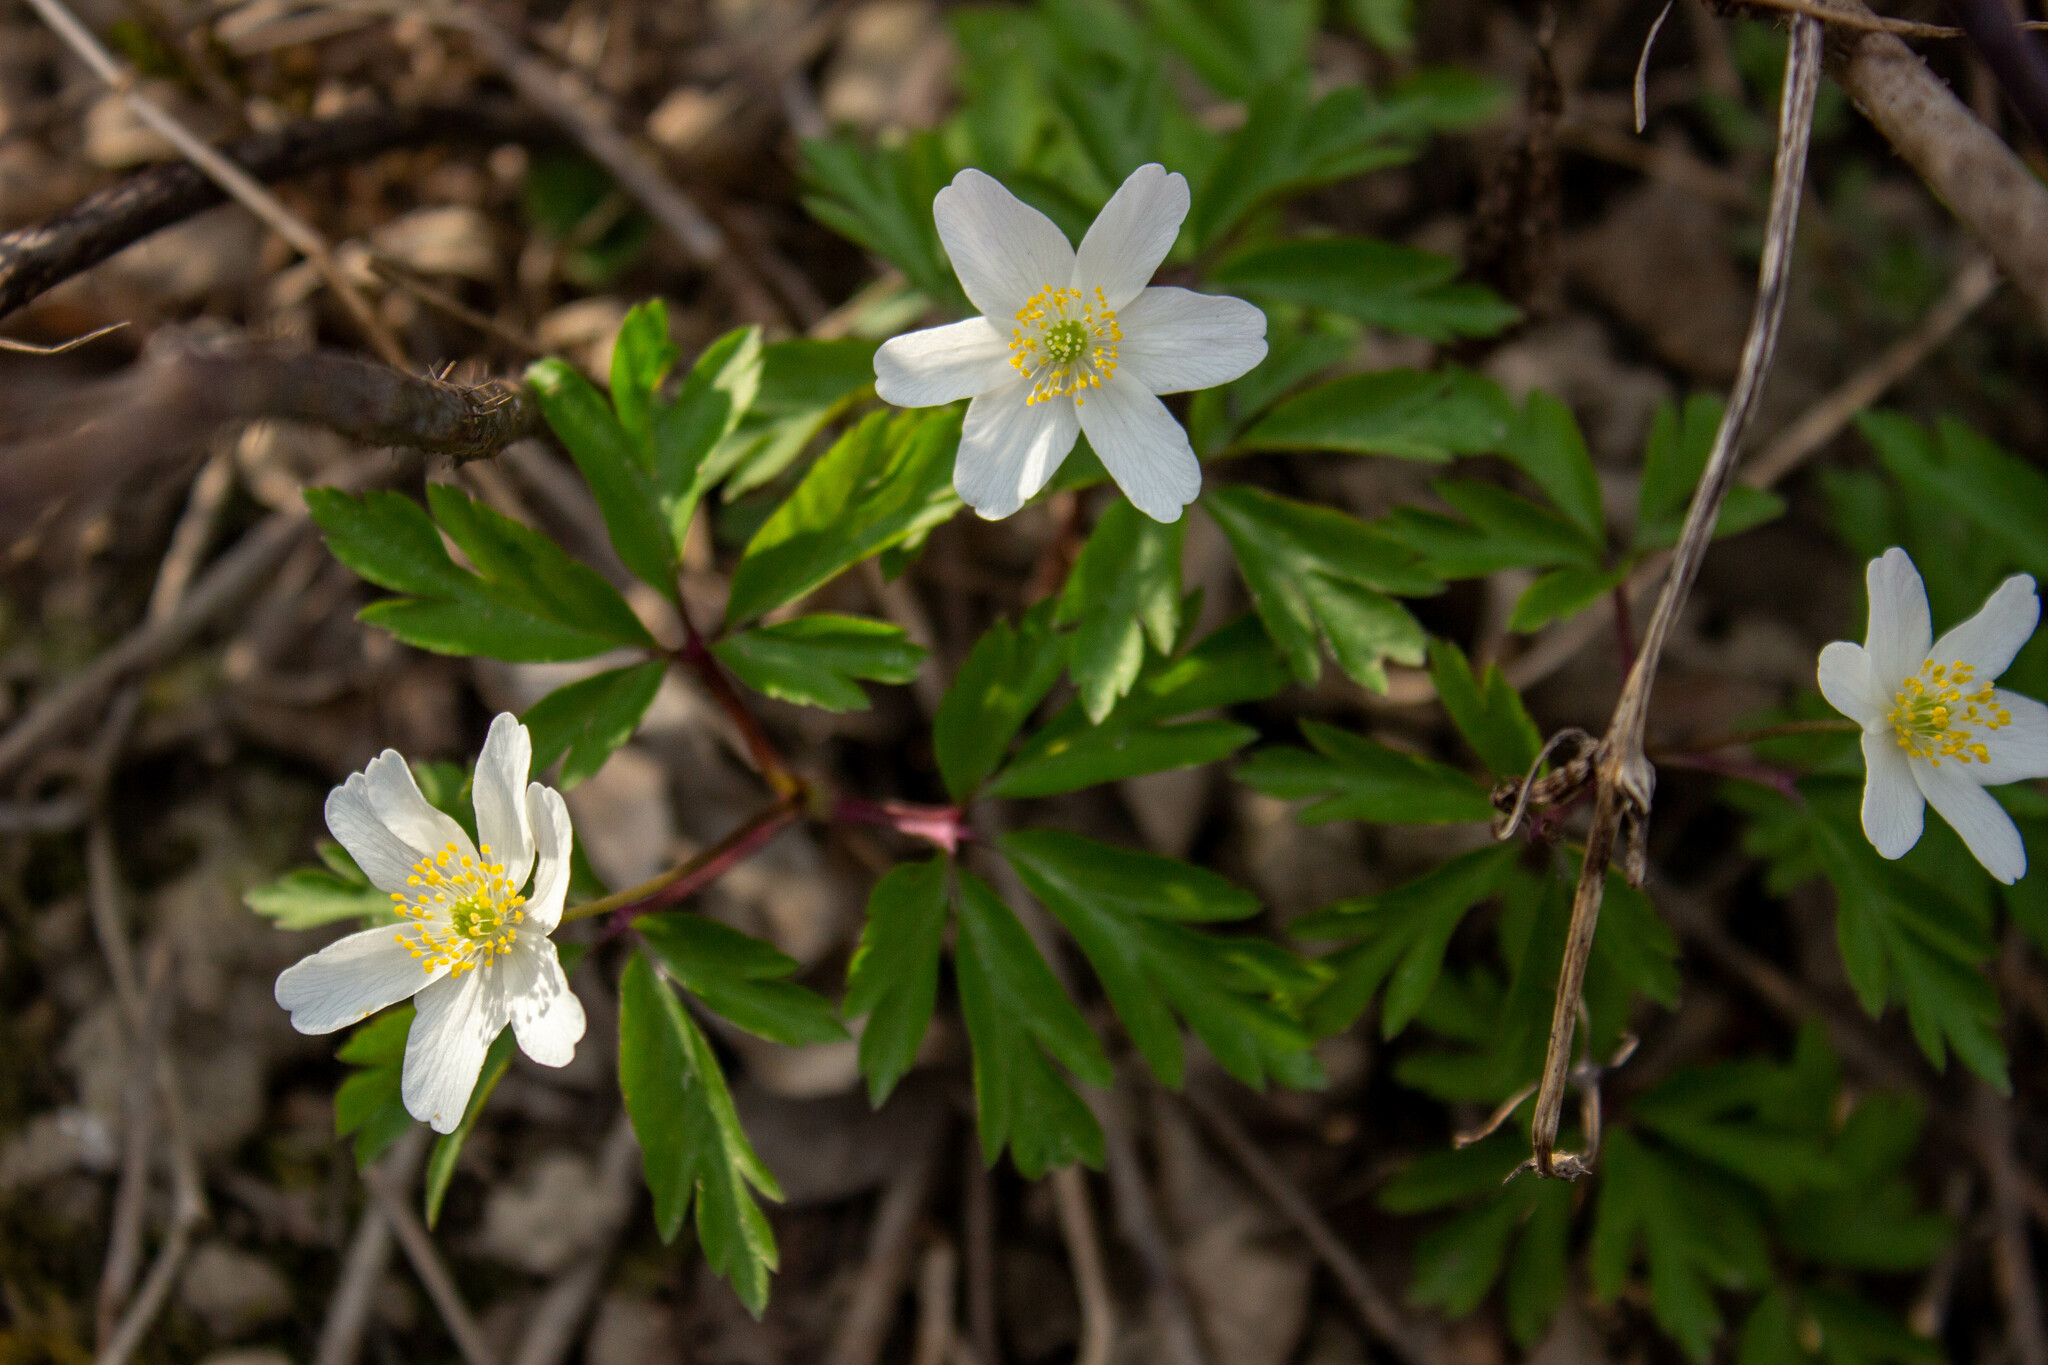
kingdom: Plantae
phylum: Tracheophyta
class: Magnoliopsida
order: Ranunculales
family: Ranunculaceae
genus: Anemone
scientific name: Anemone nemorosa
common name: Wood anemone
